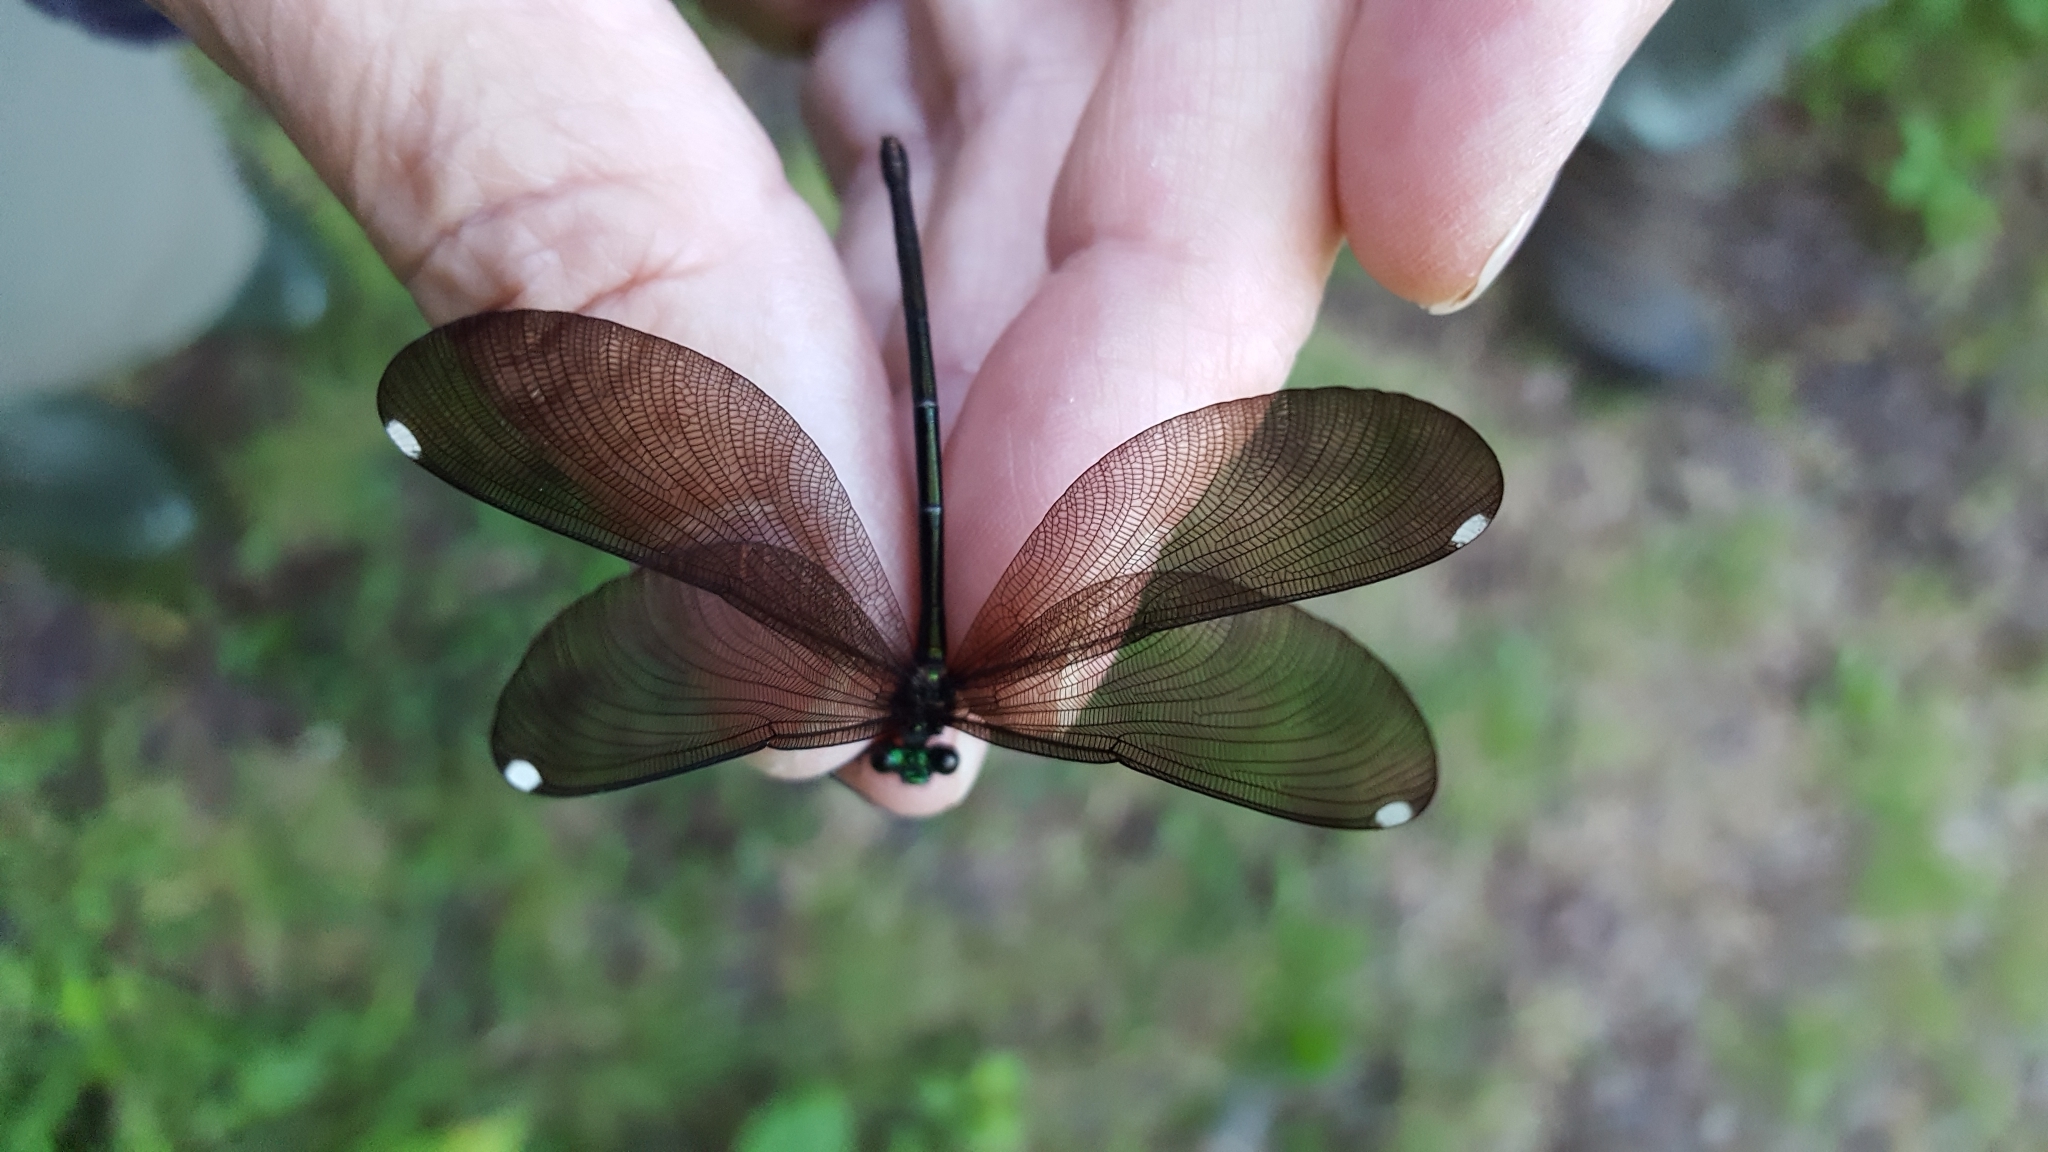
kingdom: Animalia
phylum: Arthropoda
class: Insecta
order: Odonata
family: Calopterygidae
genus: Calopteryx
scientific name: Calopteryx maculata
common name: Ebony jewelwing
